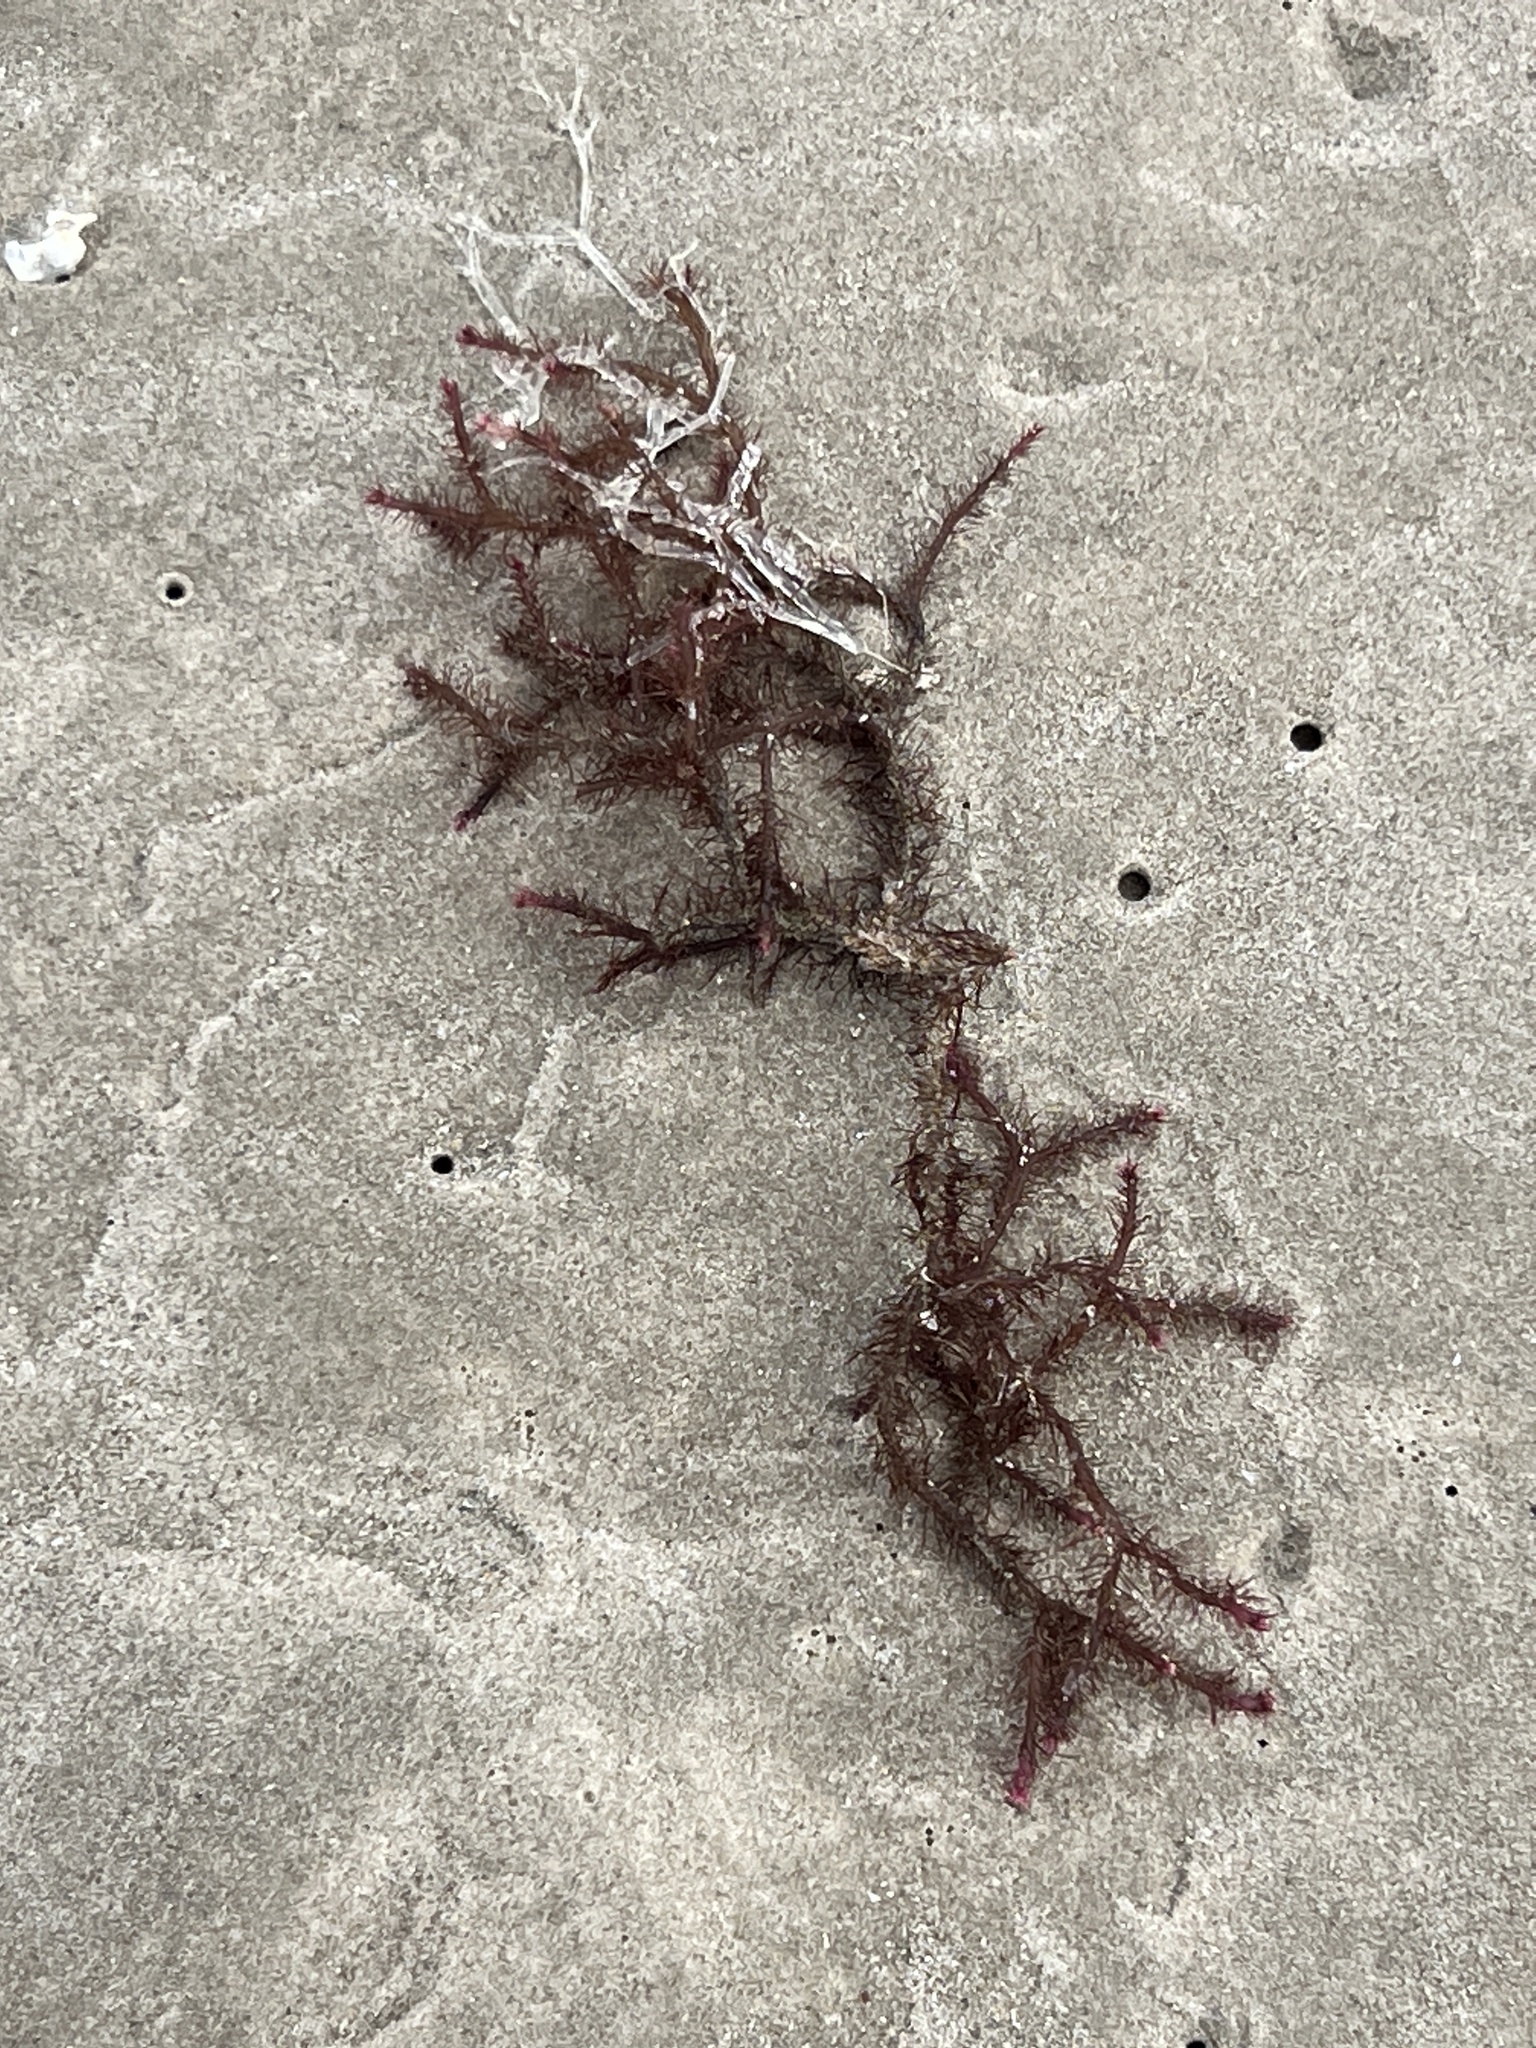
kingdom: Plantae
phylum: Rhodophyta
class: Florideophyceae
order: Ceramiales
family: Rhodomelaceae
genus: Digenea
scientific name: Digenea simplex
